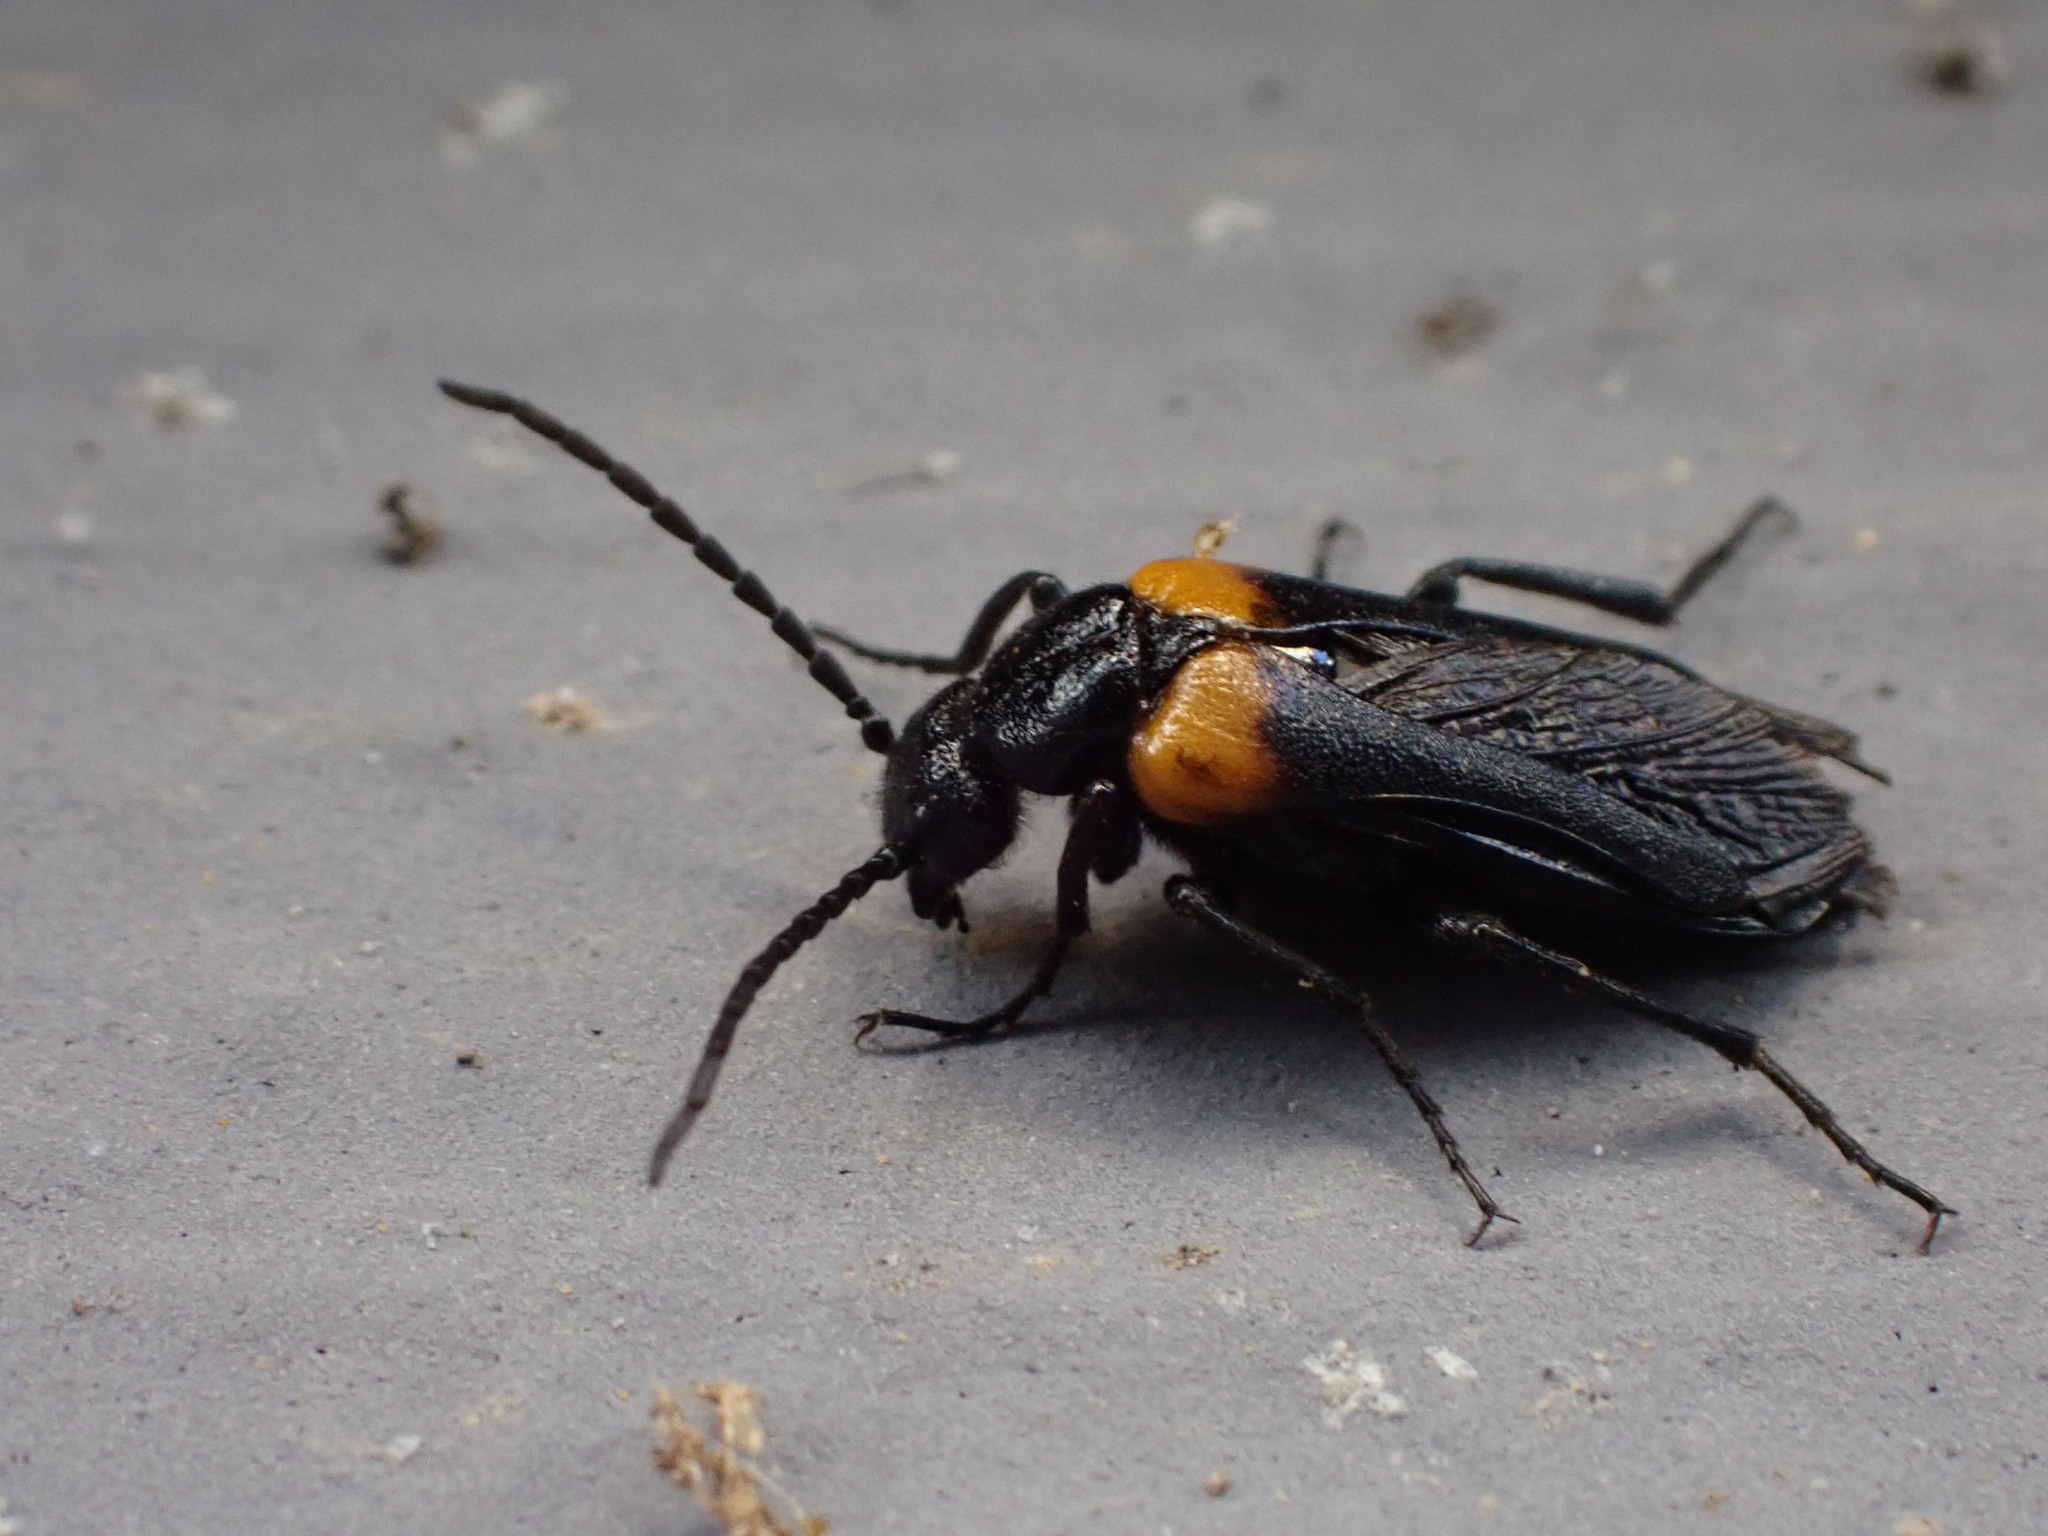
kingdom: Animalia
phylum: Arthropoda
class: Insecta
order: Coleoptera
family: Meloidae
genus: Sitaris
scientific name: Sitaris muralis
